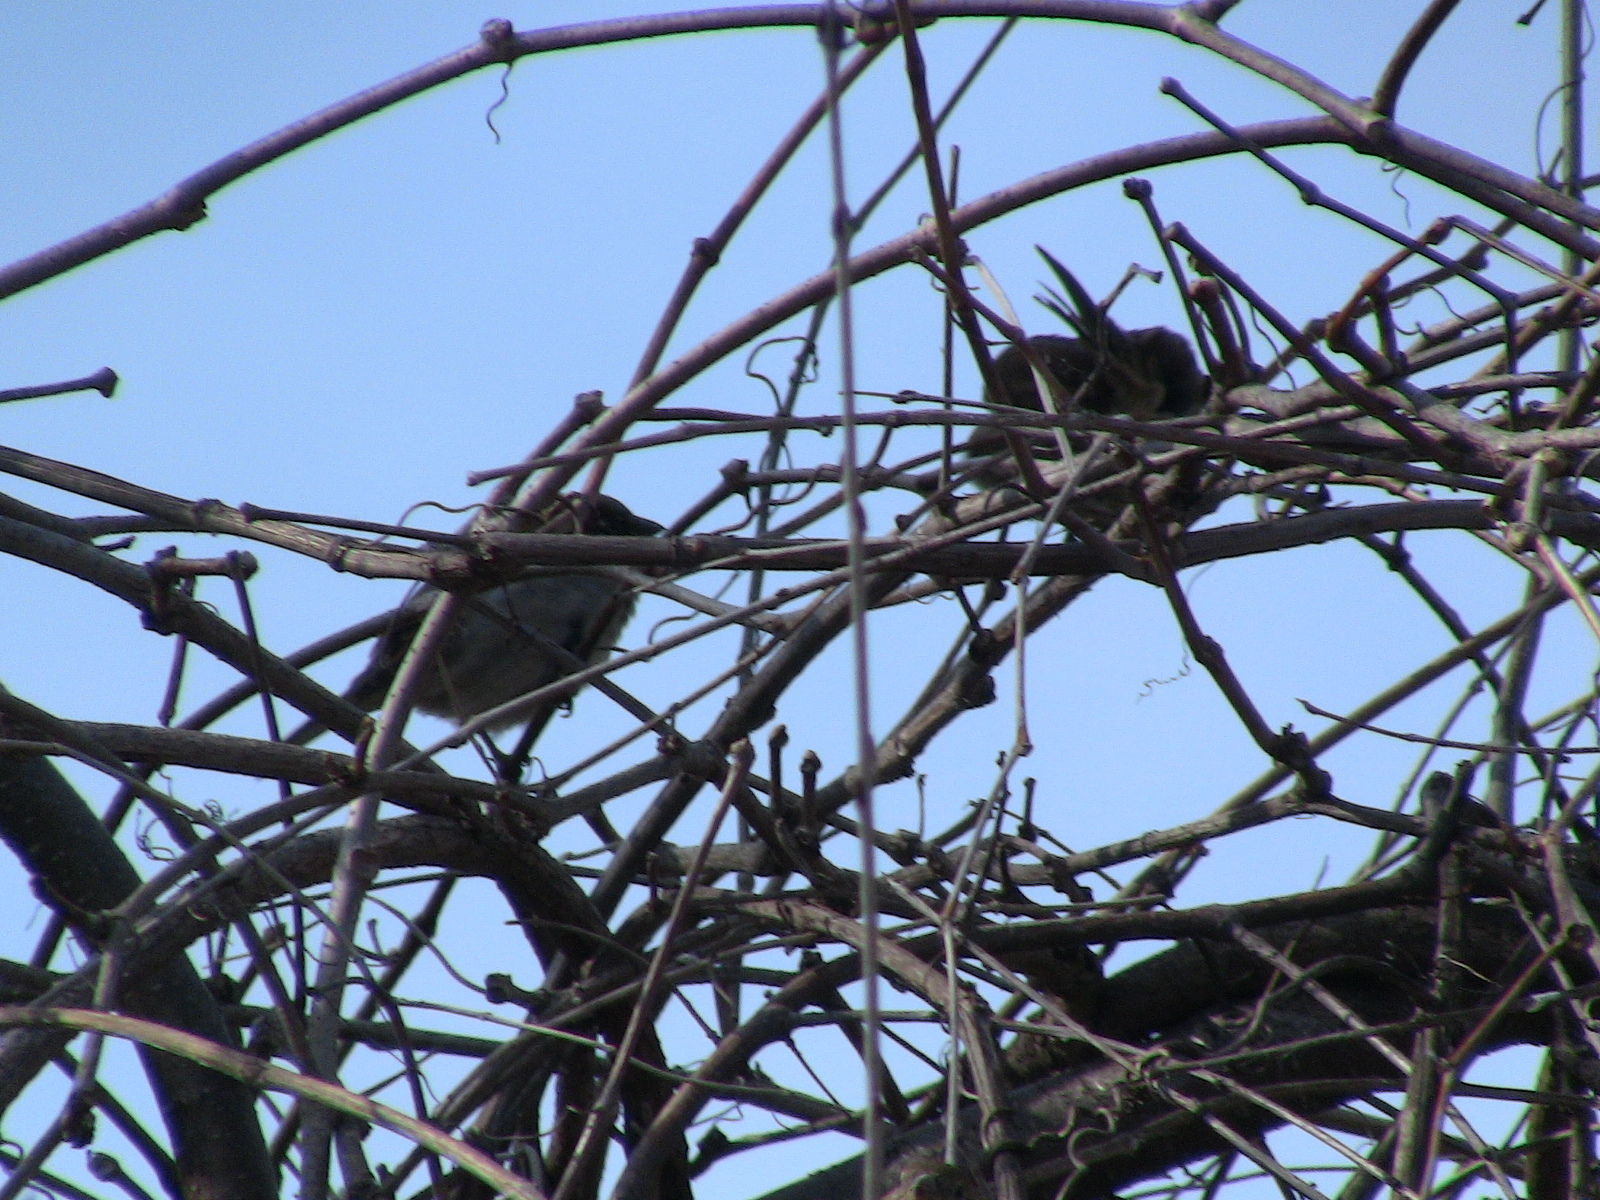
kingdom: Animalia
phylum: Chordata
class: Aves
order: Passeriformes
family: Passeridae
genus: Passer
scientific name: Passer domesticus
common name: House sparrow
